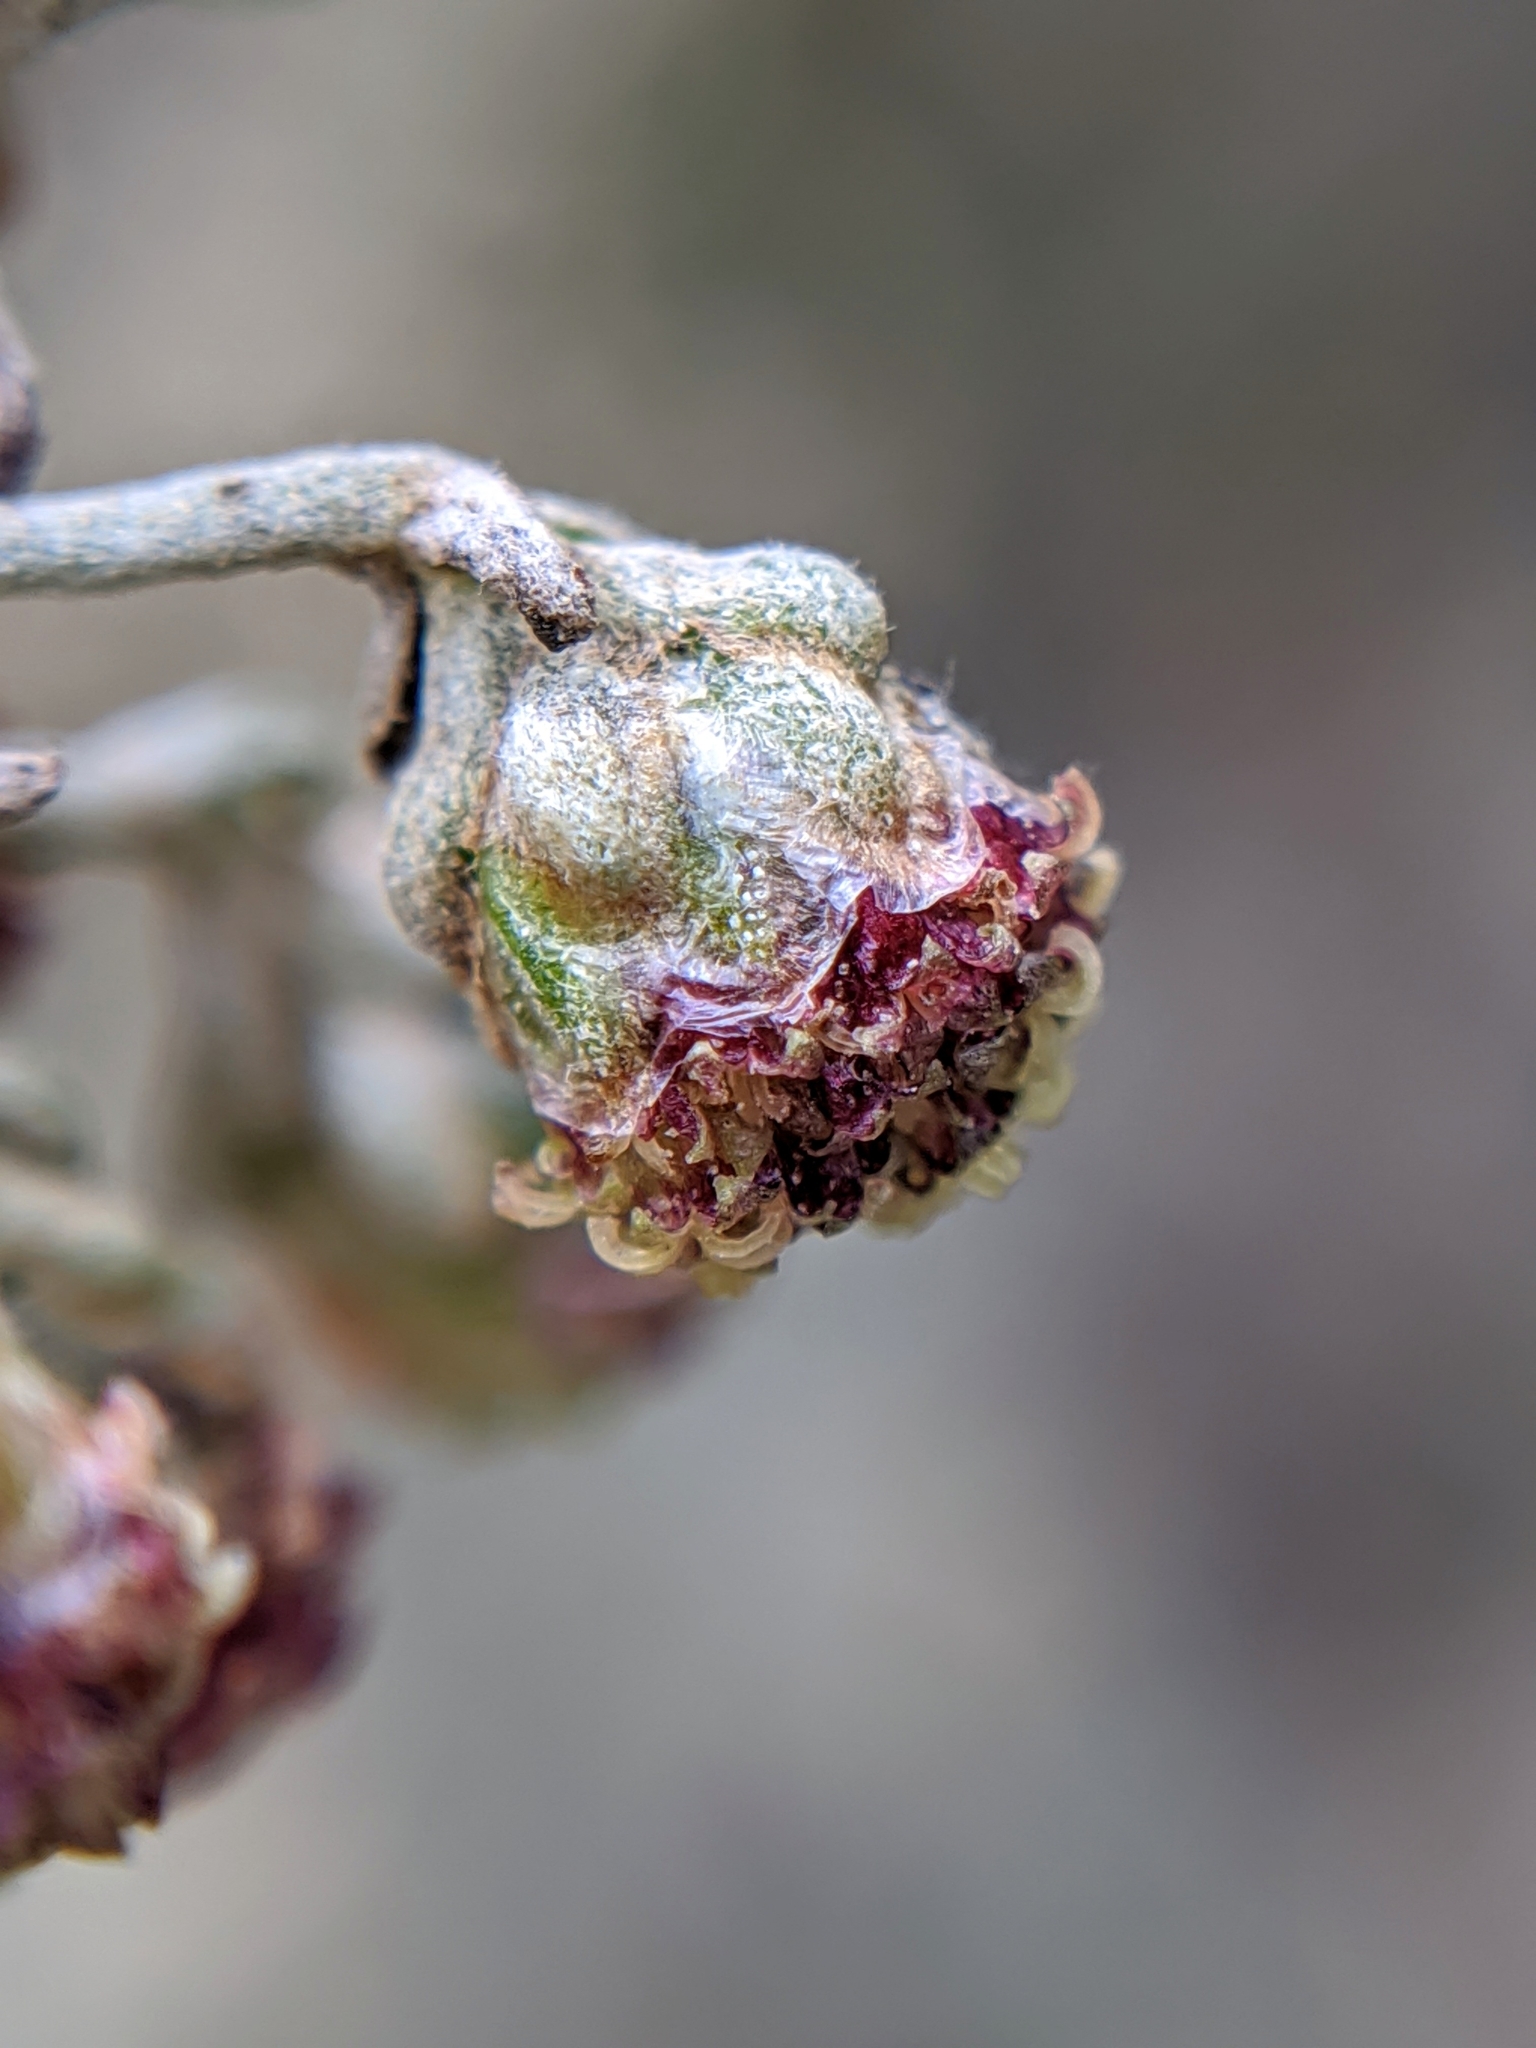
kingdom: Plantae
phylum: Tracheophyta
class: Magnoliopsida
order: Asterales
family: Asteraceae
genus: Artemisia
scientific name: Artemisia californica
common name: California sagebrush
